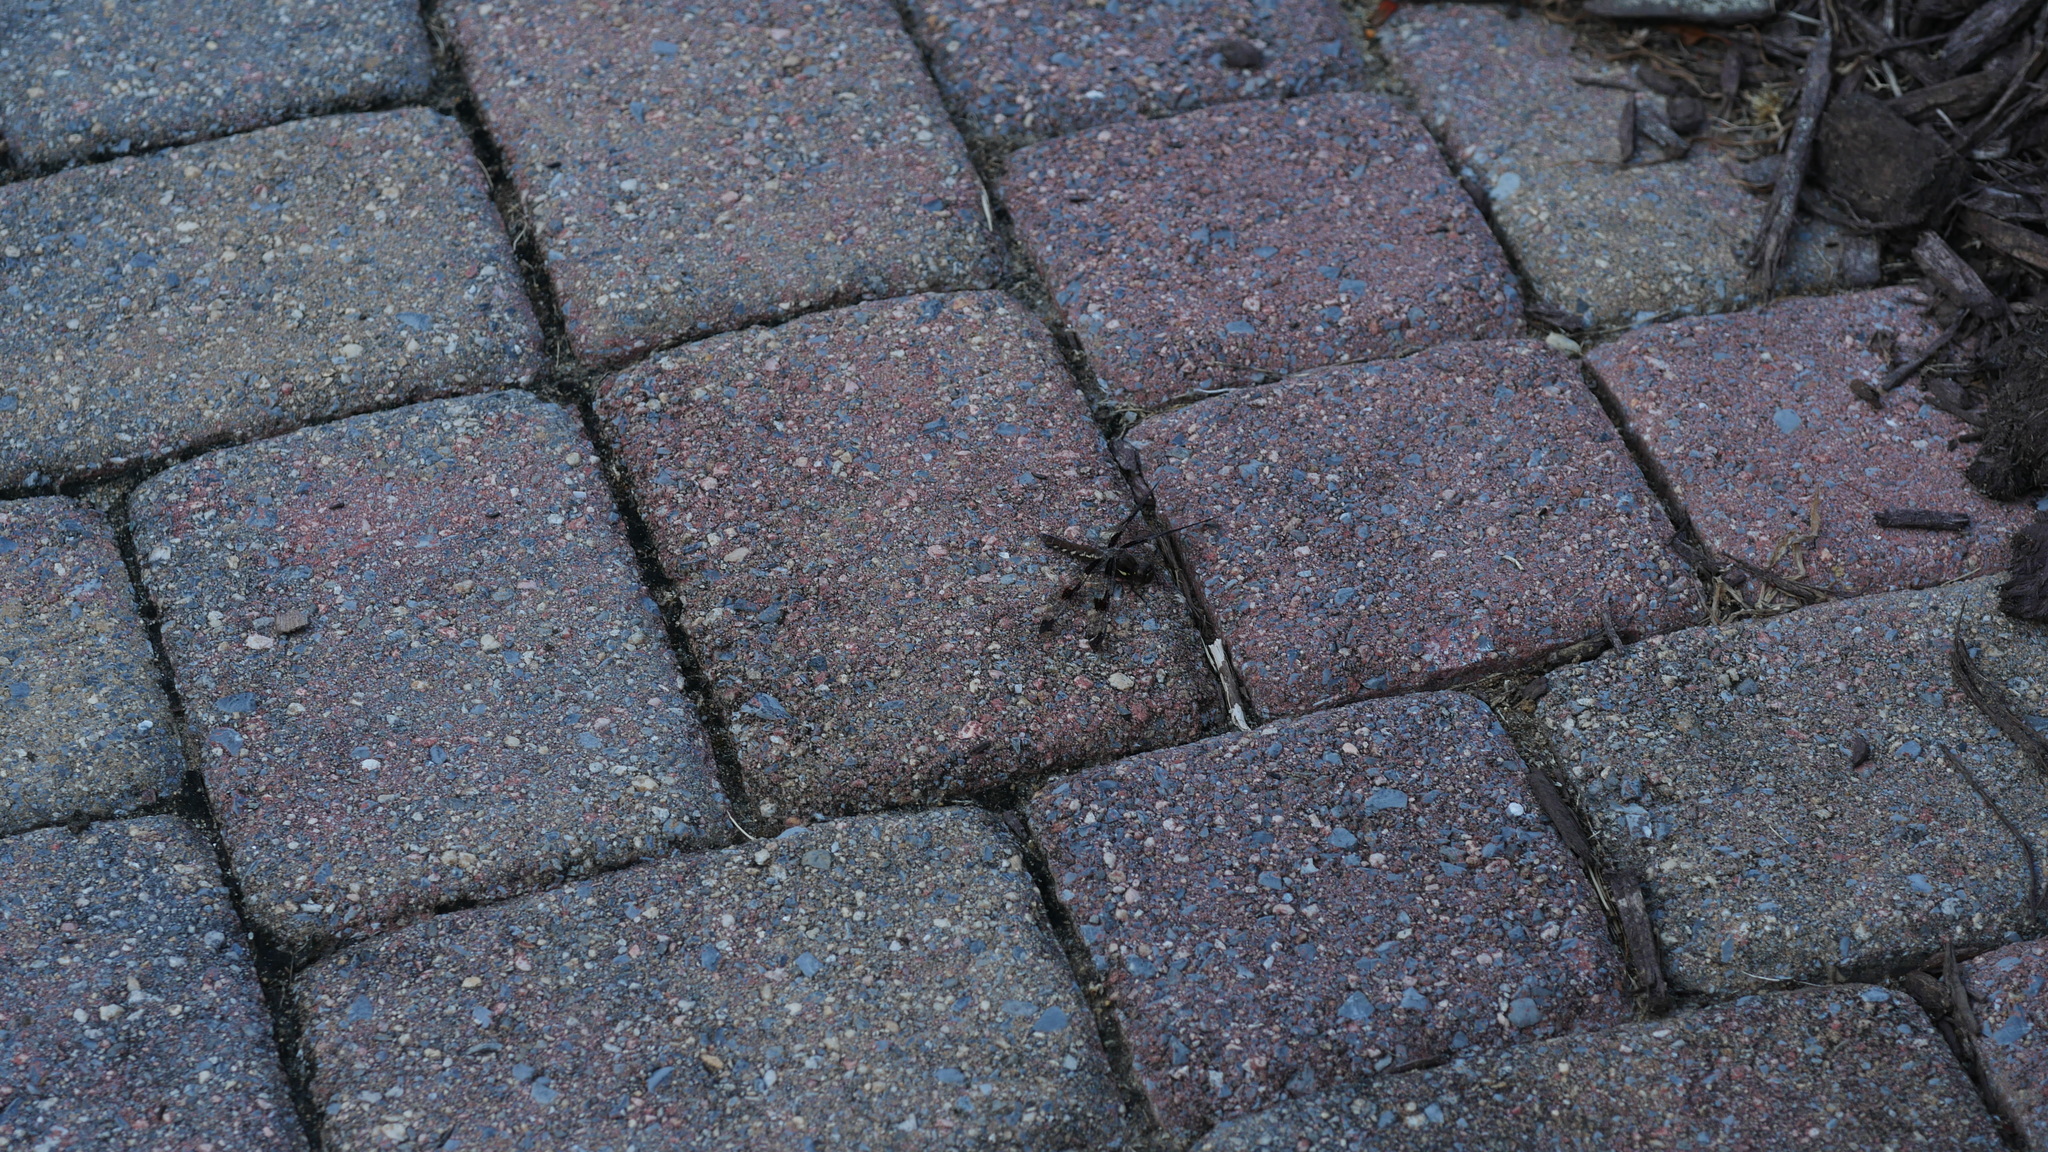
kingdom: Animalia
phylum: Arthropoda
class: Insecta
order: Odonata
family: Libellulidae
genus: Plathemis
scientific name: Plathemis lydia
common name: Common whitetail
